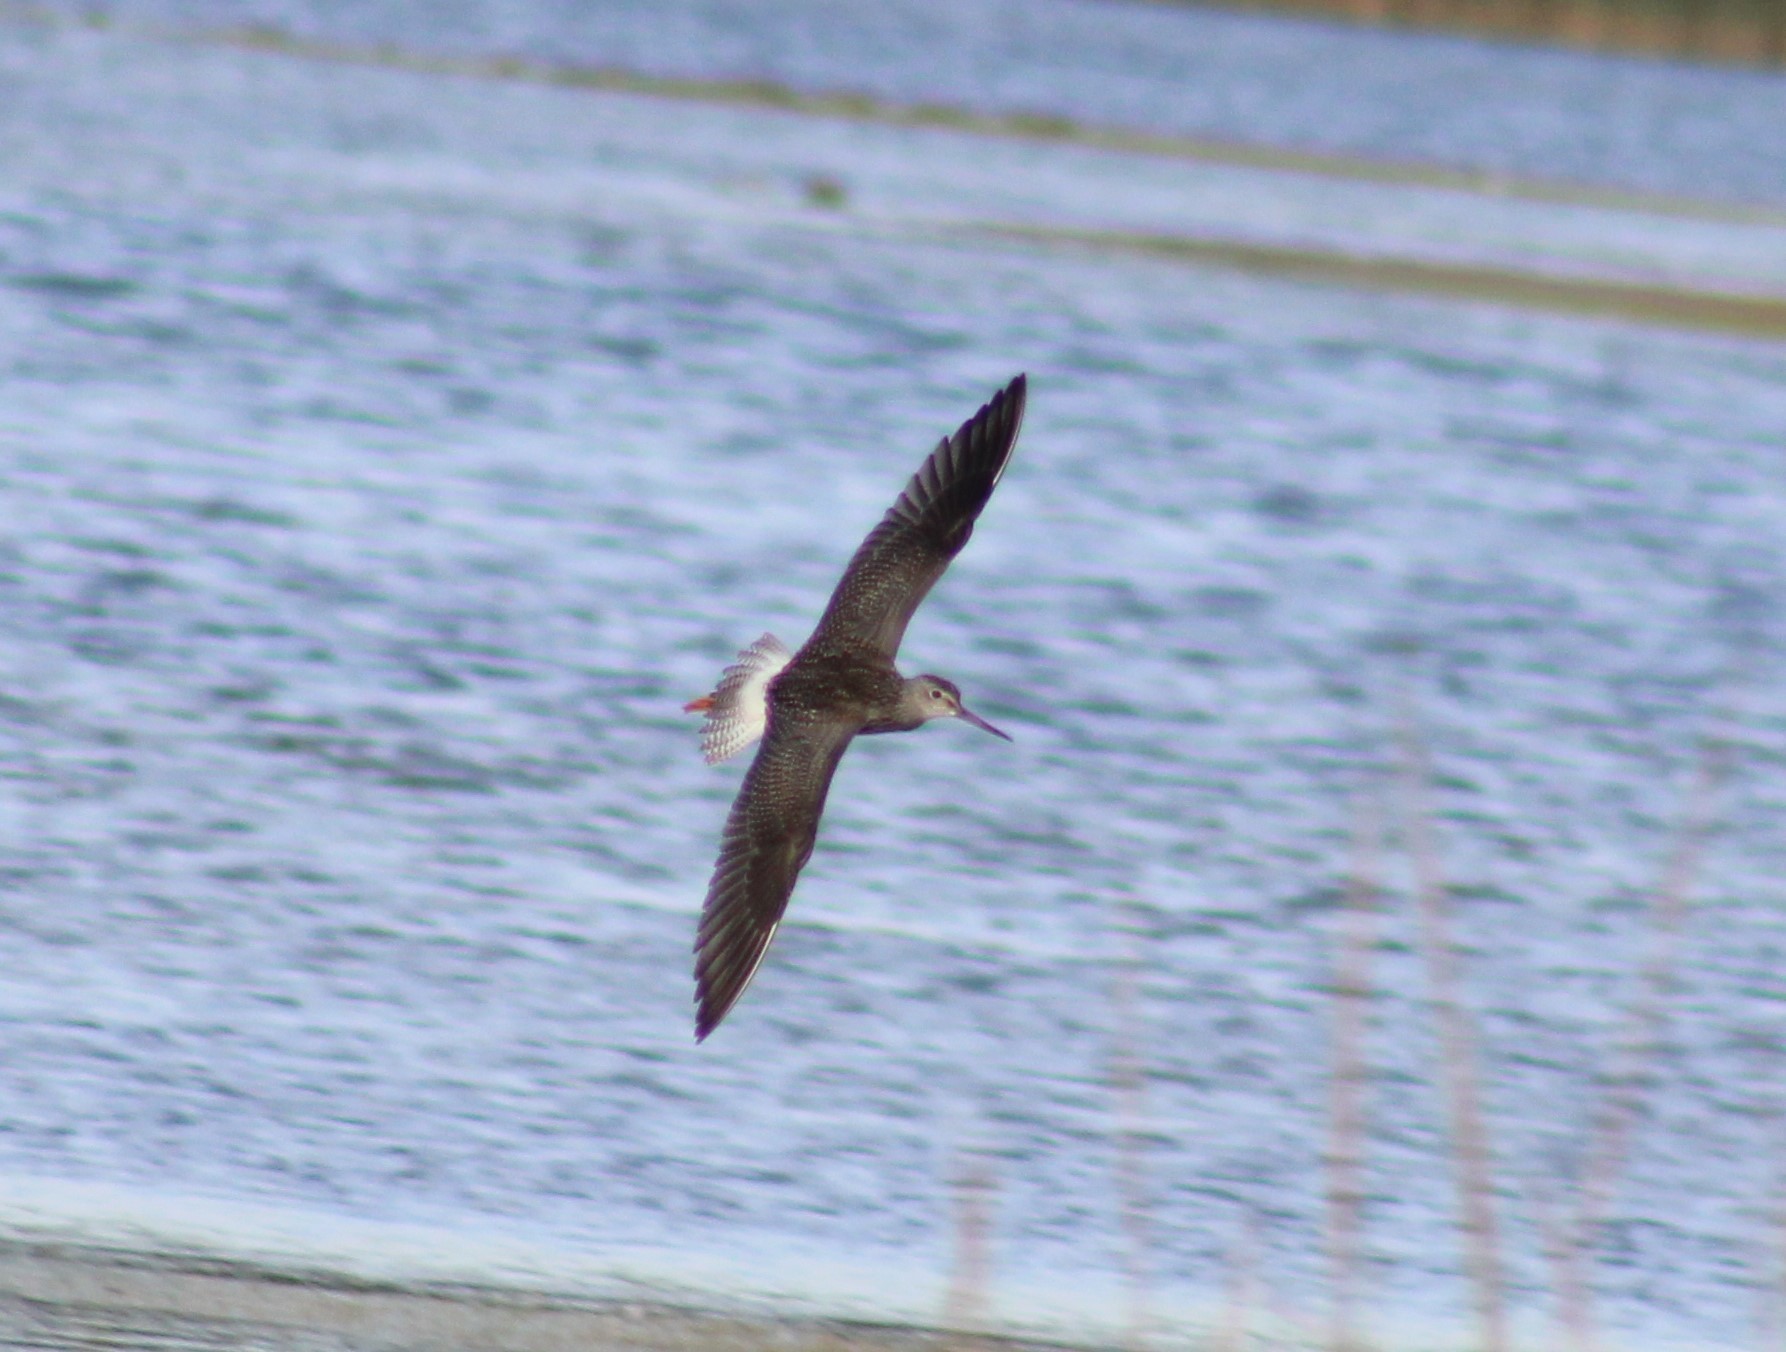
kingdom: Animalia
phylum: Chordata
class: Aves
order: Charadriiformes
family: Scolopacidae
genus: Tringa
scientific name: Tringa melanoleuca
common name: Greater yellowlegs
